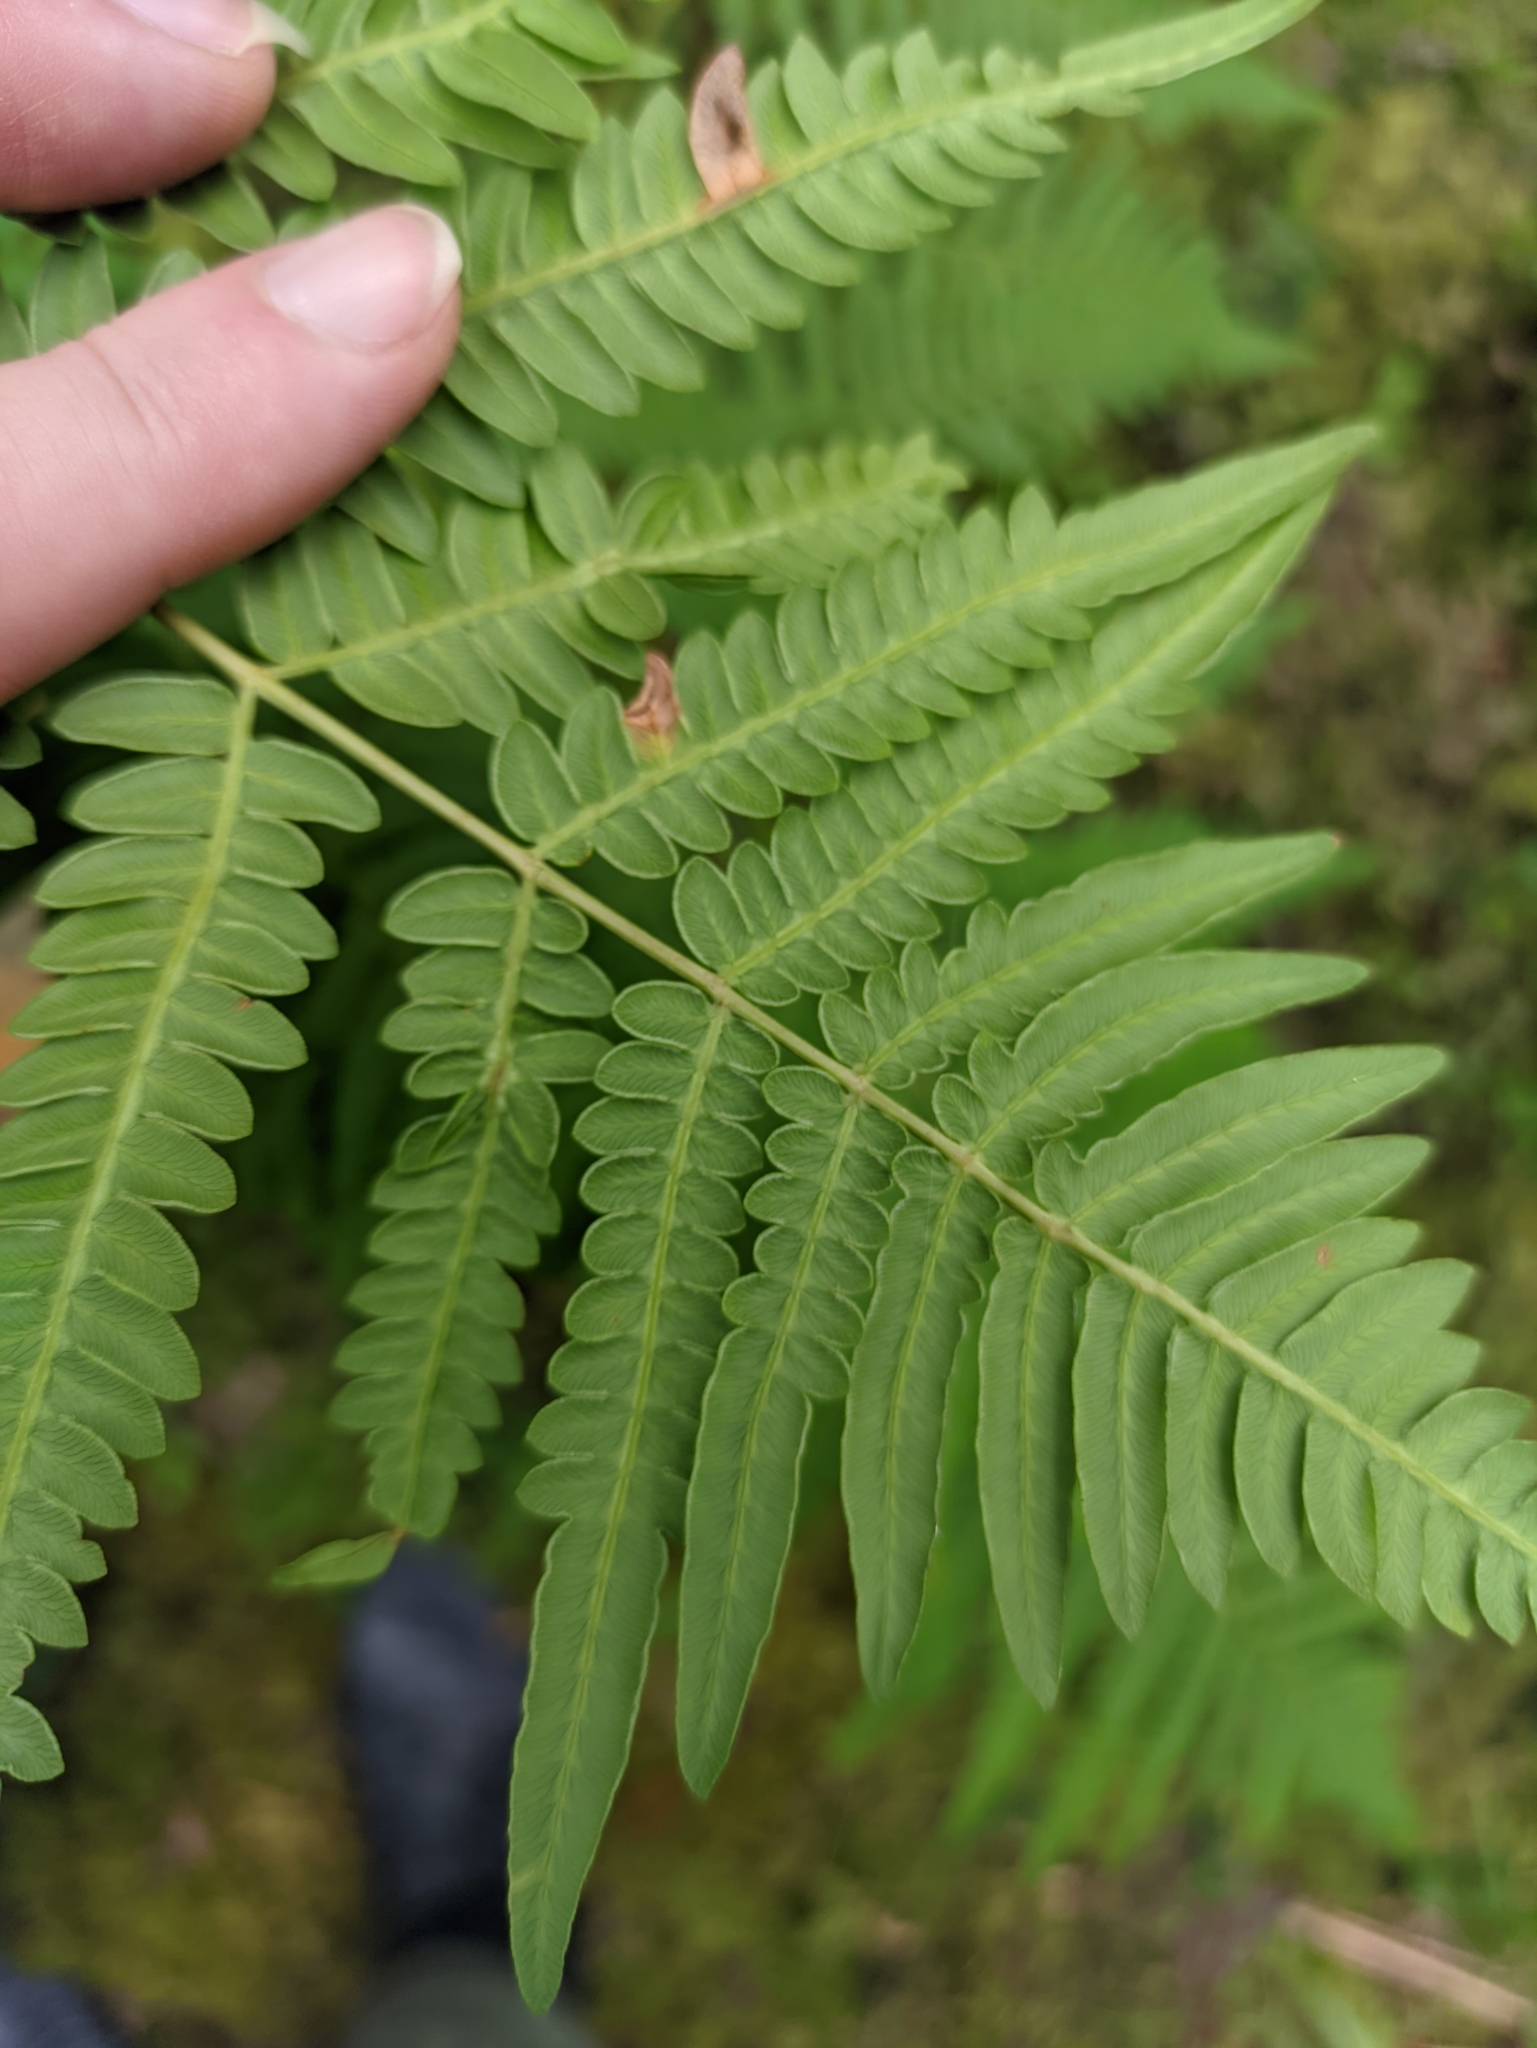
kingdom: Plantae
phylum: Tracheophyta
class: Polypodiopsida
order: Polypodiales
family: Dennstaedtiaceae
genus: Pteridium
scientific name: Pteridium aquilinum
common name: Bracken
